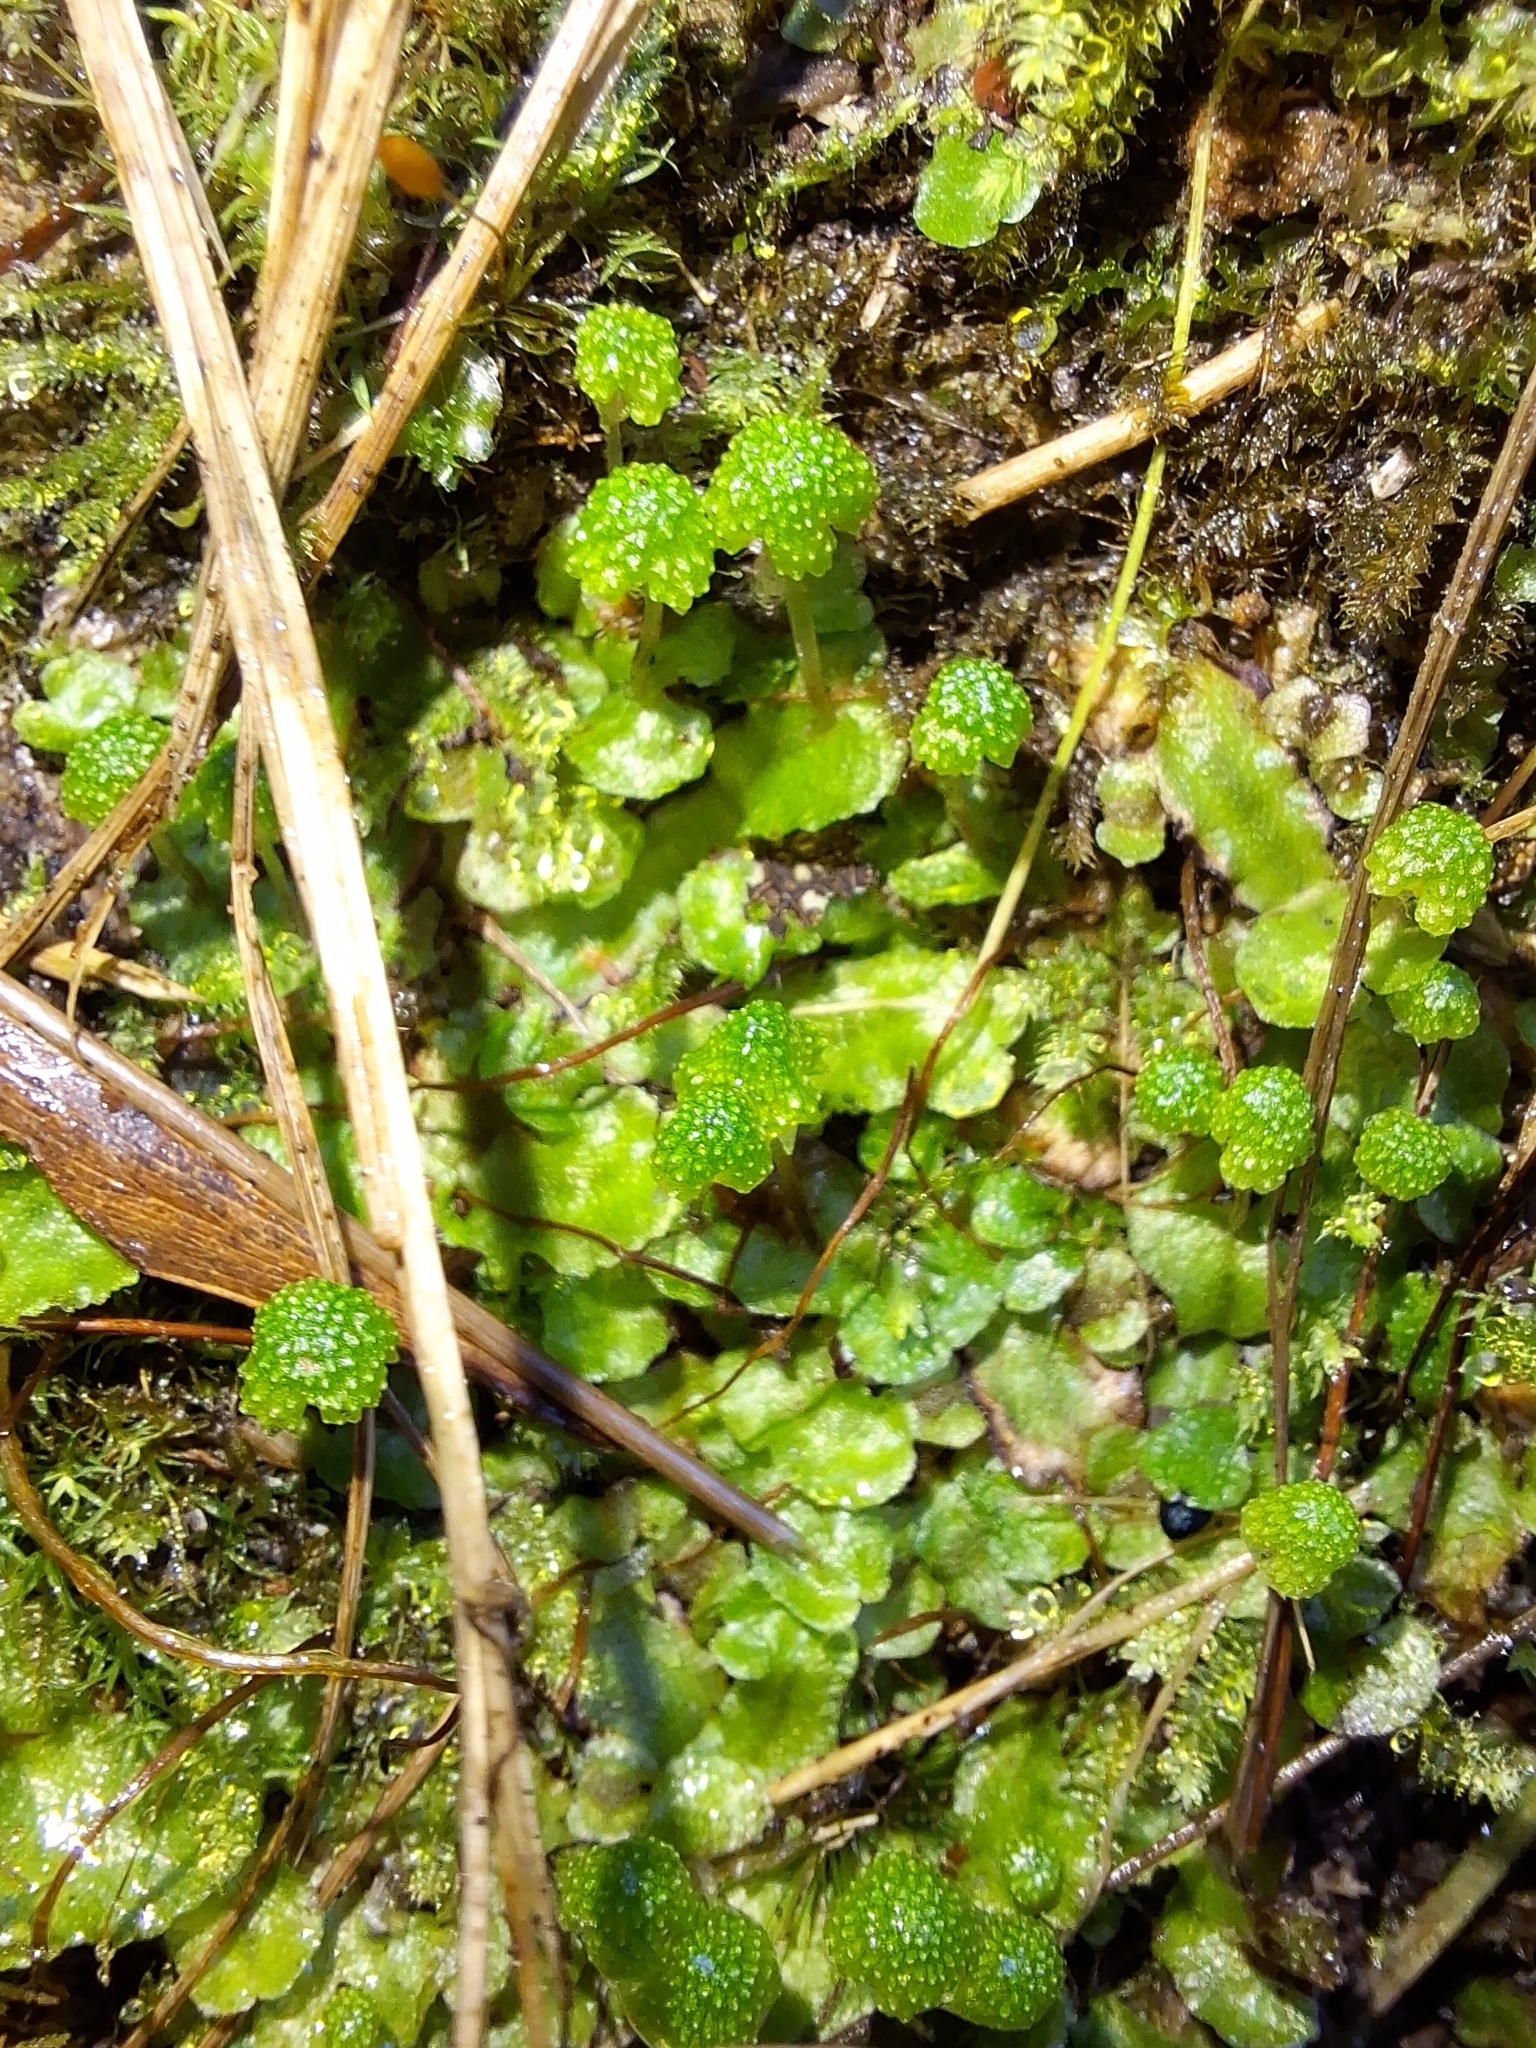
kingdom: Plantae
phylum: Marchantiophyta
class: Marchantiopsida
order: Marchantiales
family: Aytoniaceae
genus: Asterella
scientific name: Asterella drummondii
